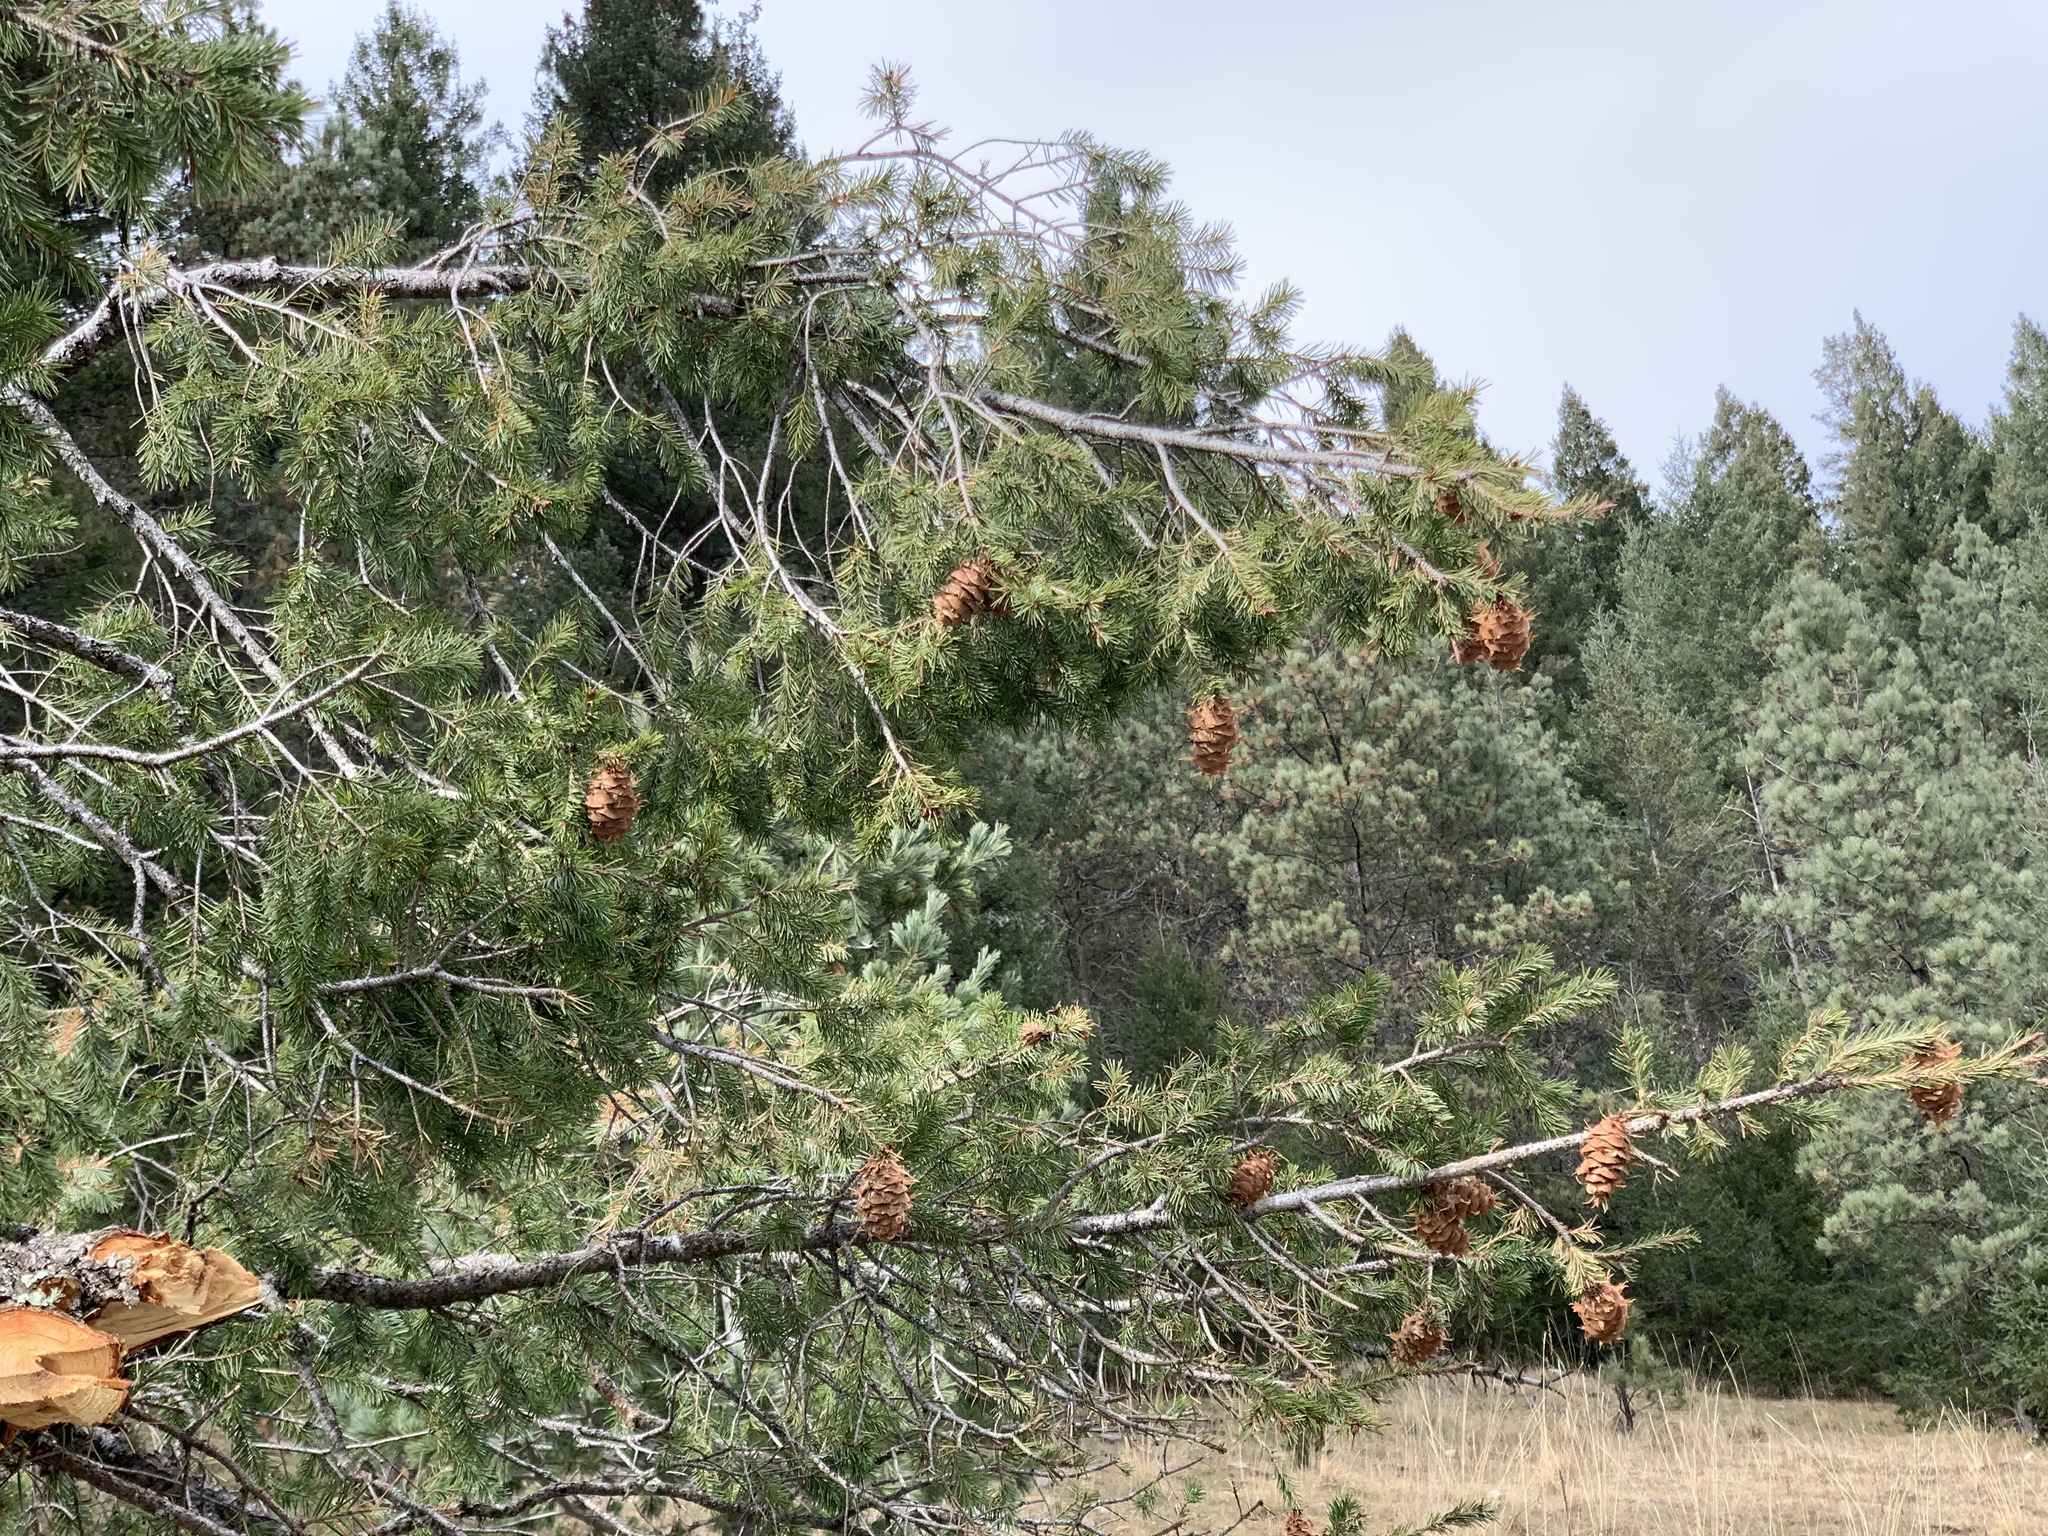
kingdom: Plantae
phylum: Tracheophyta
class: Pinopsida
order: Pinales
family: Pinaceae
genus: Pseudotsuga
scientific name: Pseudotsuga menziesii
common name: Douglas fir
